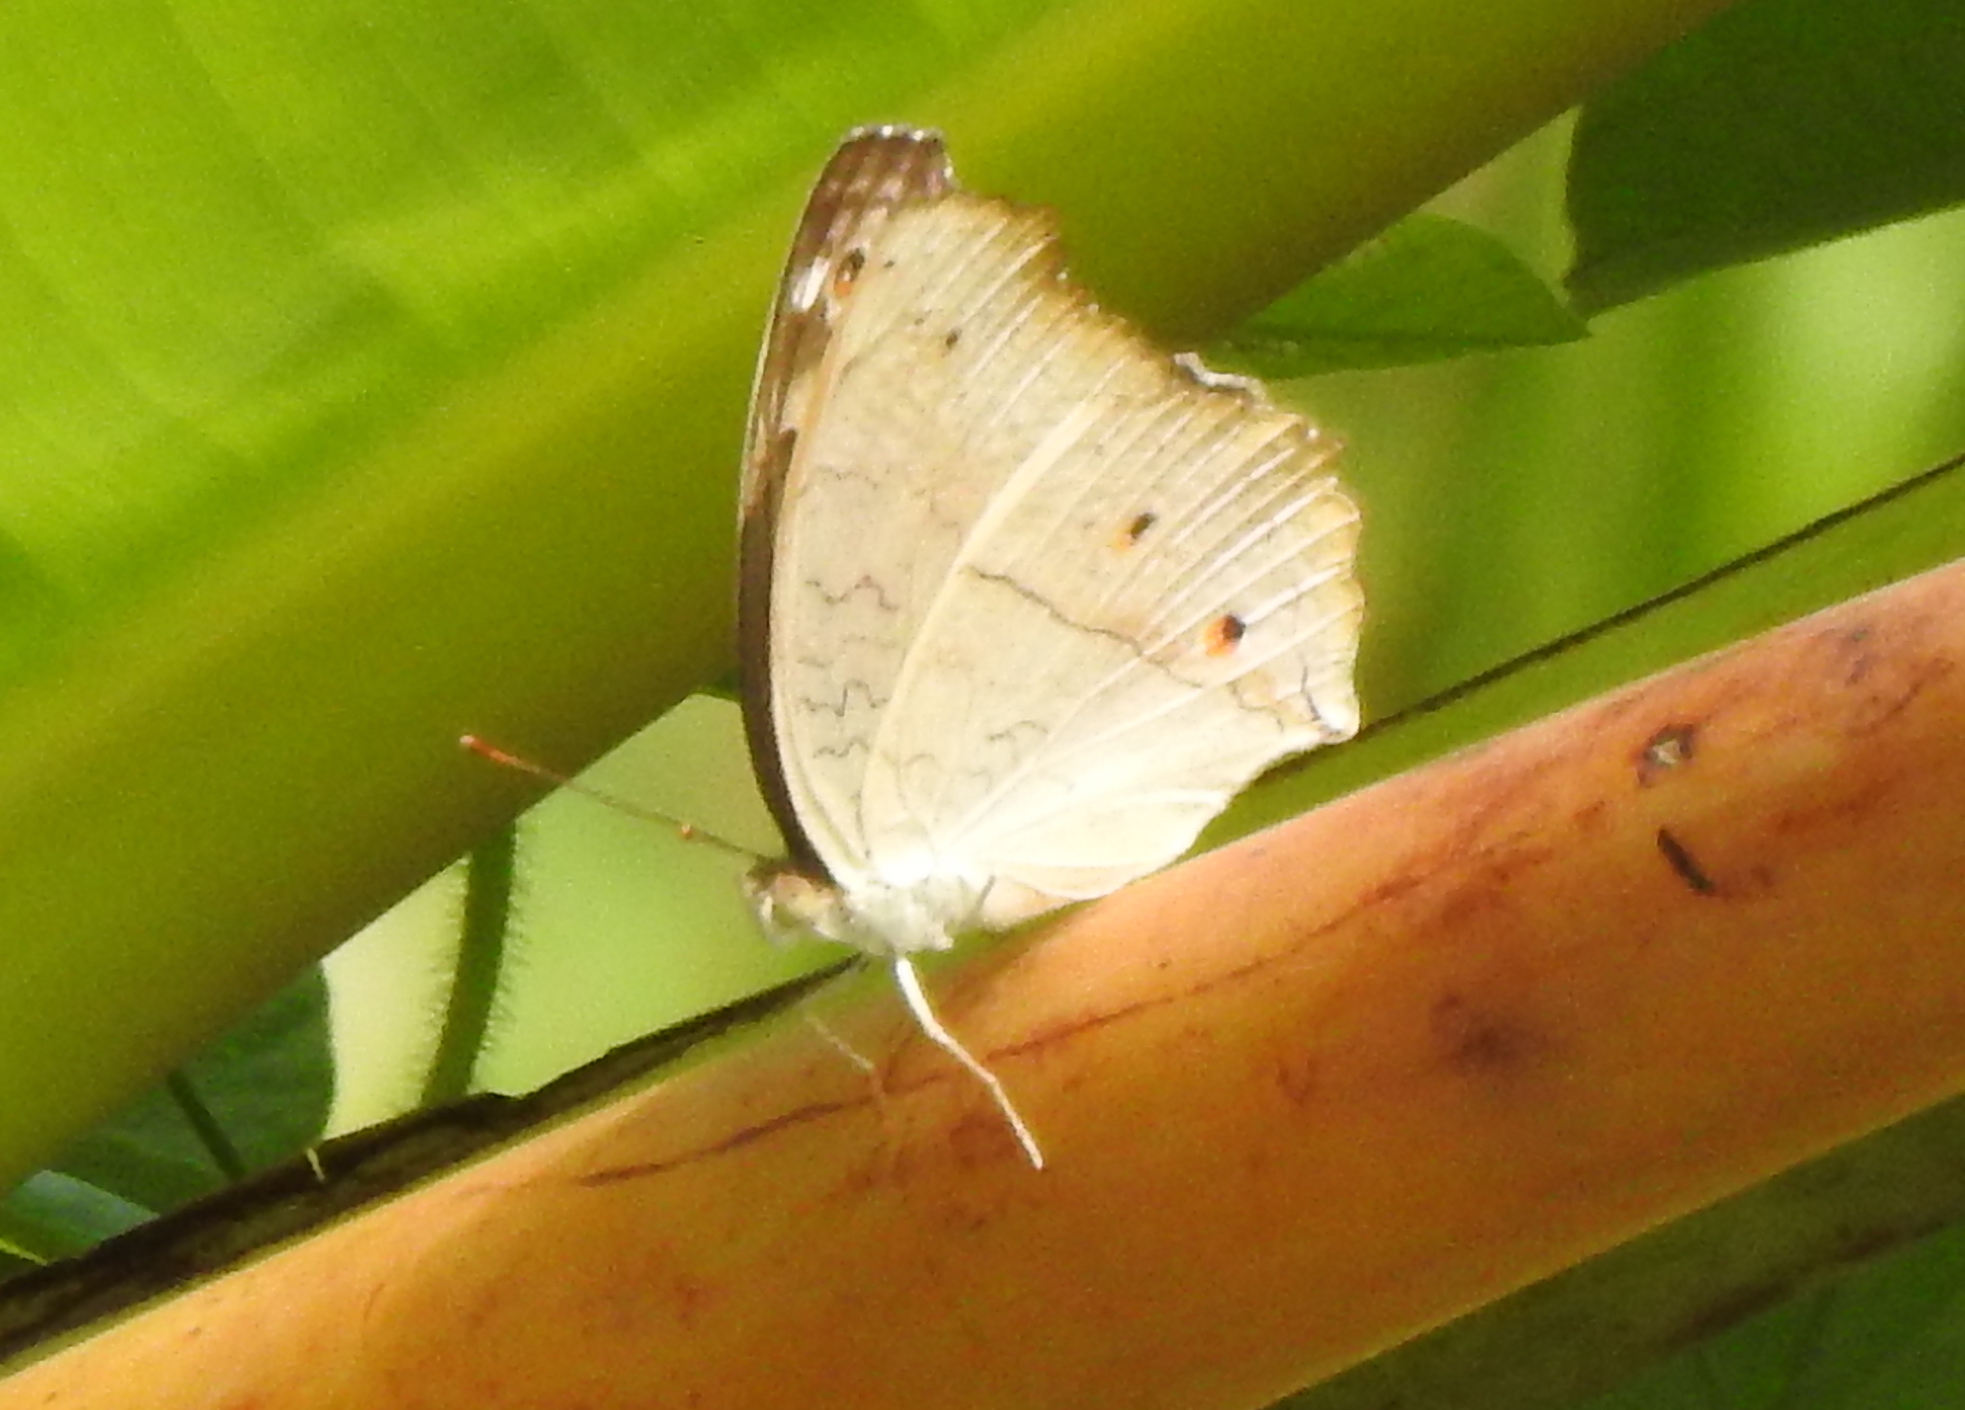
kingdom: Animalia
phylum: Arthropoda
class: Insecta
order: Lepidoptera
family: Nymphalidae
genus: Junonia
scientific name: Junonia atlites
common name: Grey pansy
